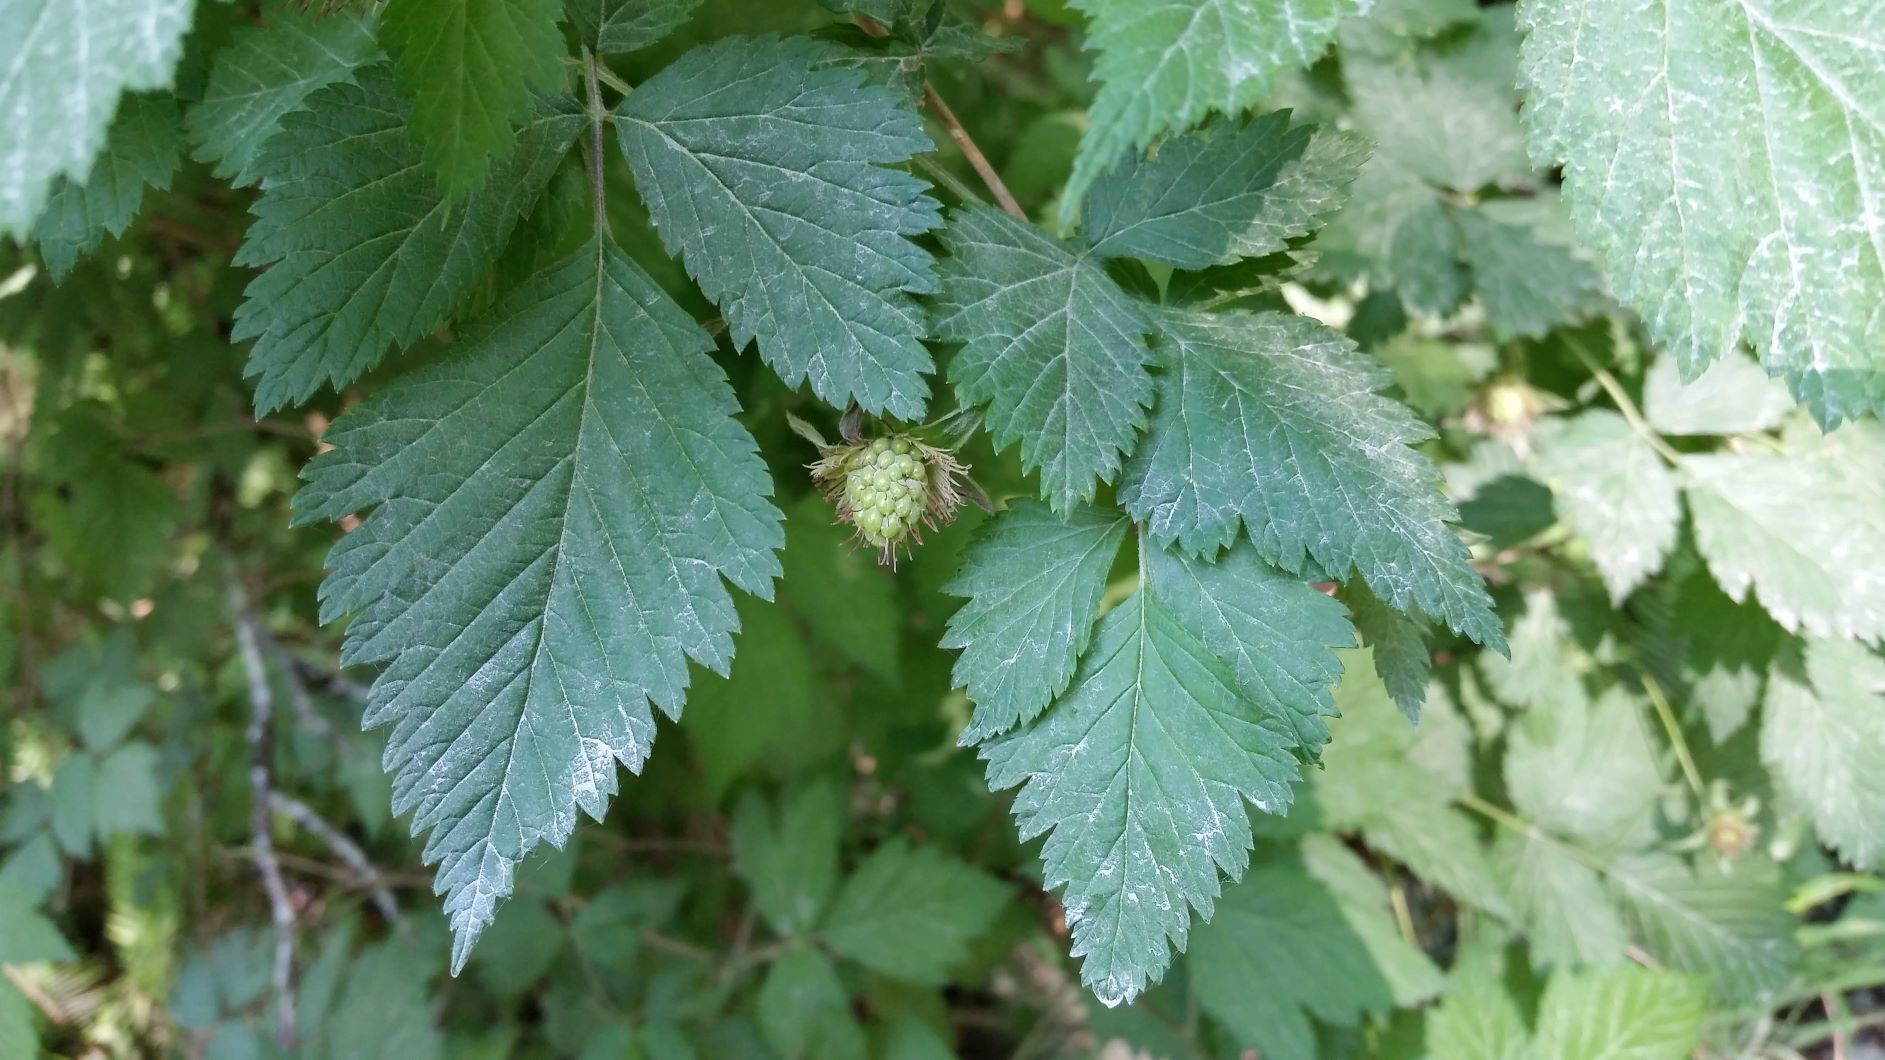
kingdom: Plantae
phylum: Tracheophyta
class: Magnoliopsida
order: Rosales
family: Rosaceae
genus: Rubus
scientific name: Rubus spectabilis
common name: Salmonberry
